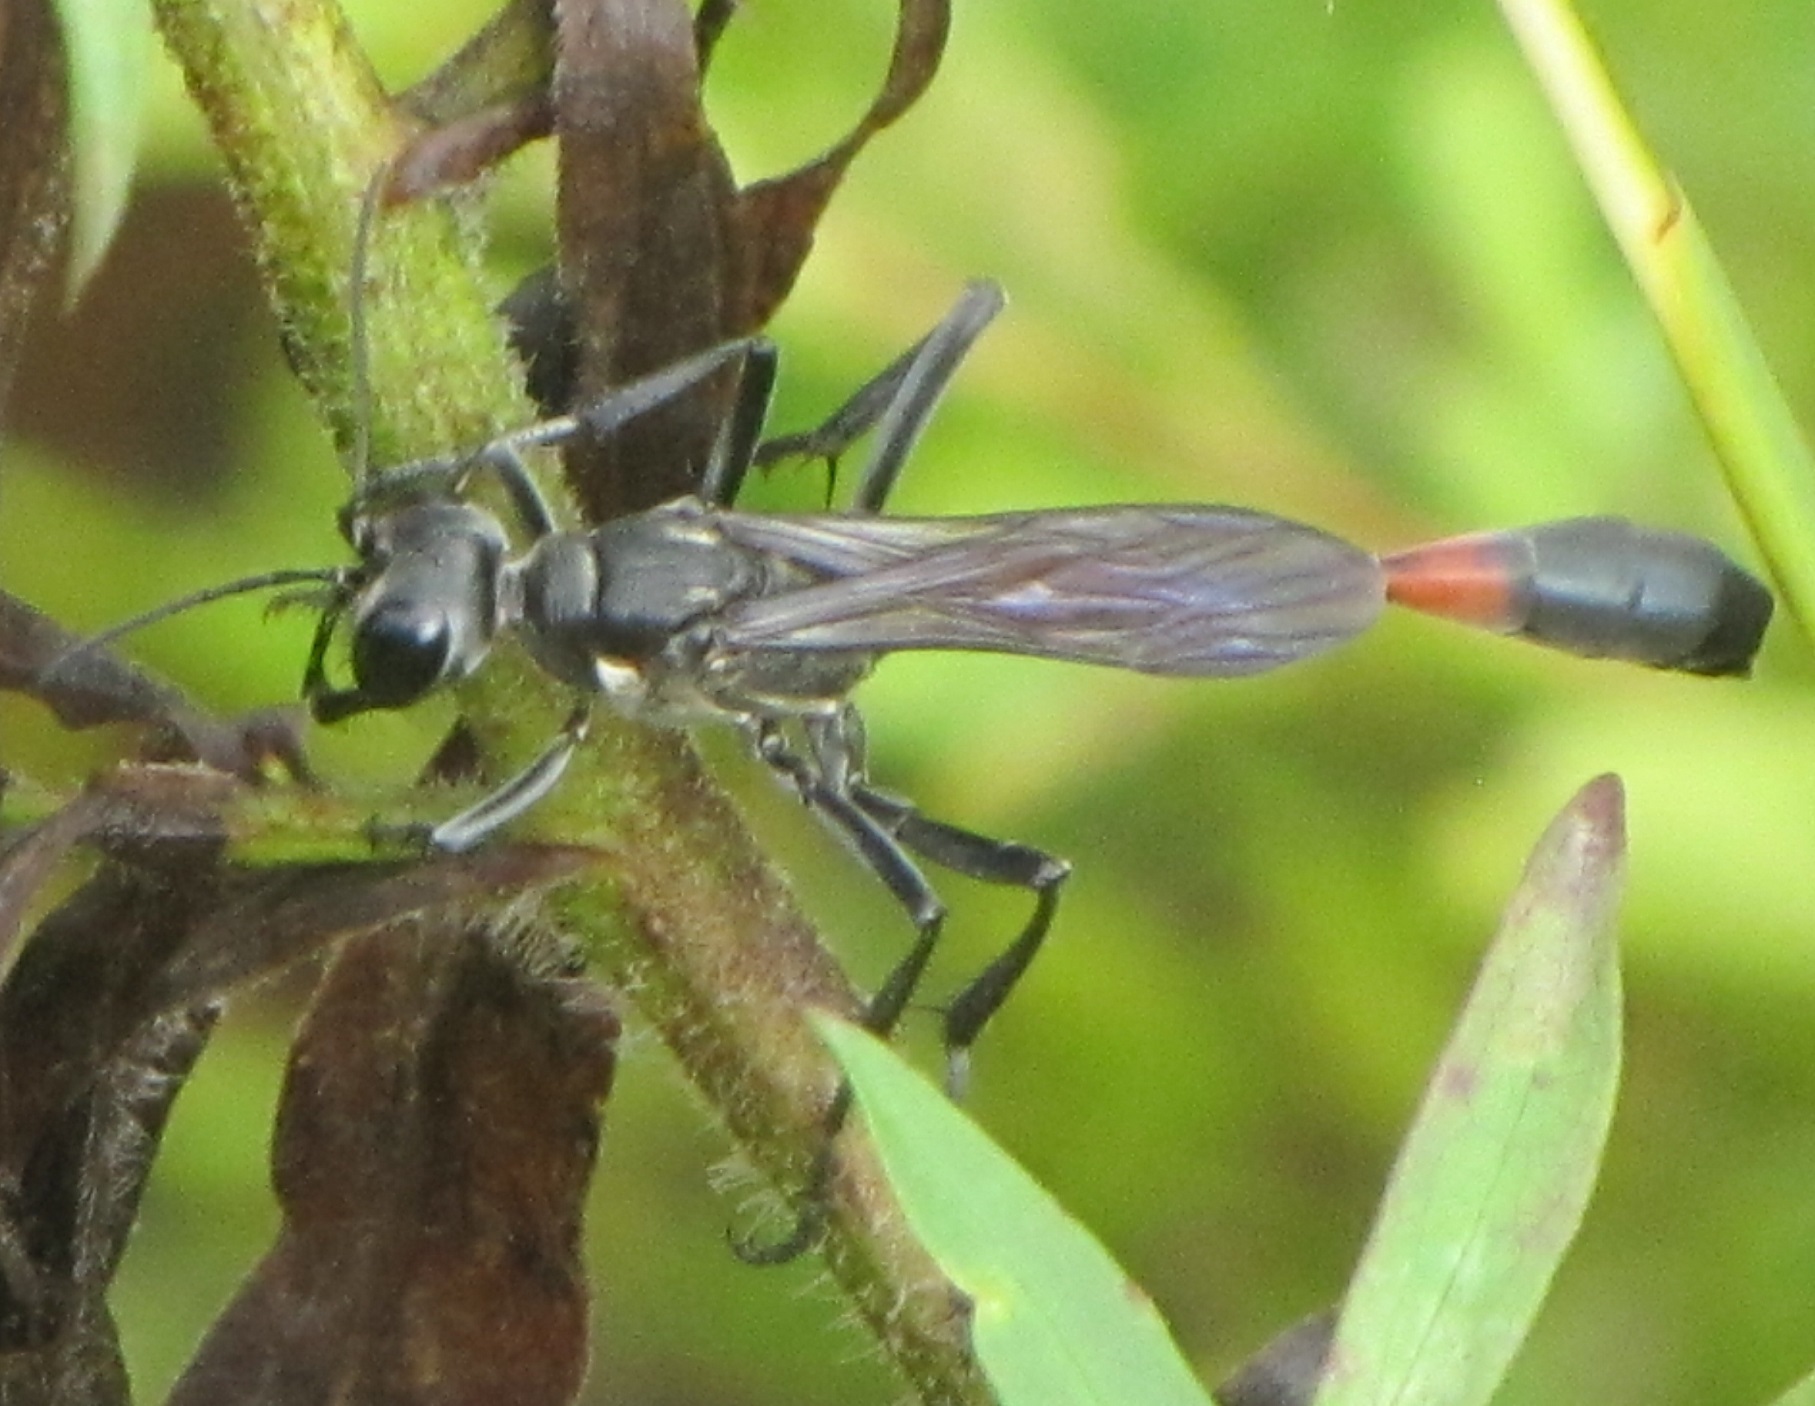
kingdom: Animalia
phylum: Arthropoda
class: Insecta
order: Hymenoptera
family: Sphecidae
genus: Ammophila
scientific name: Ammophila procera
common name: Common thread-waisted wasp
